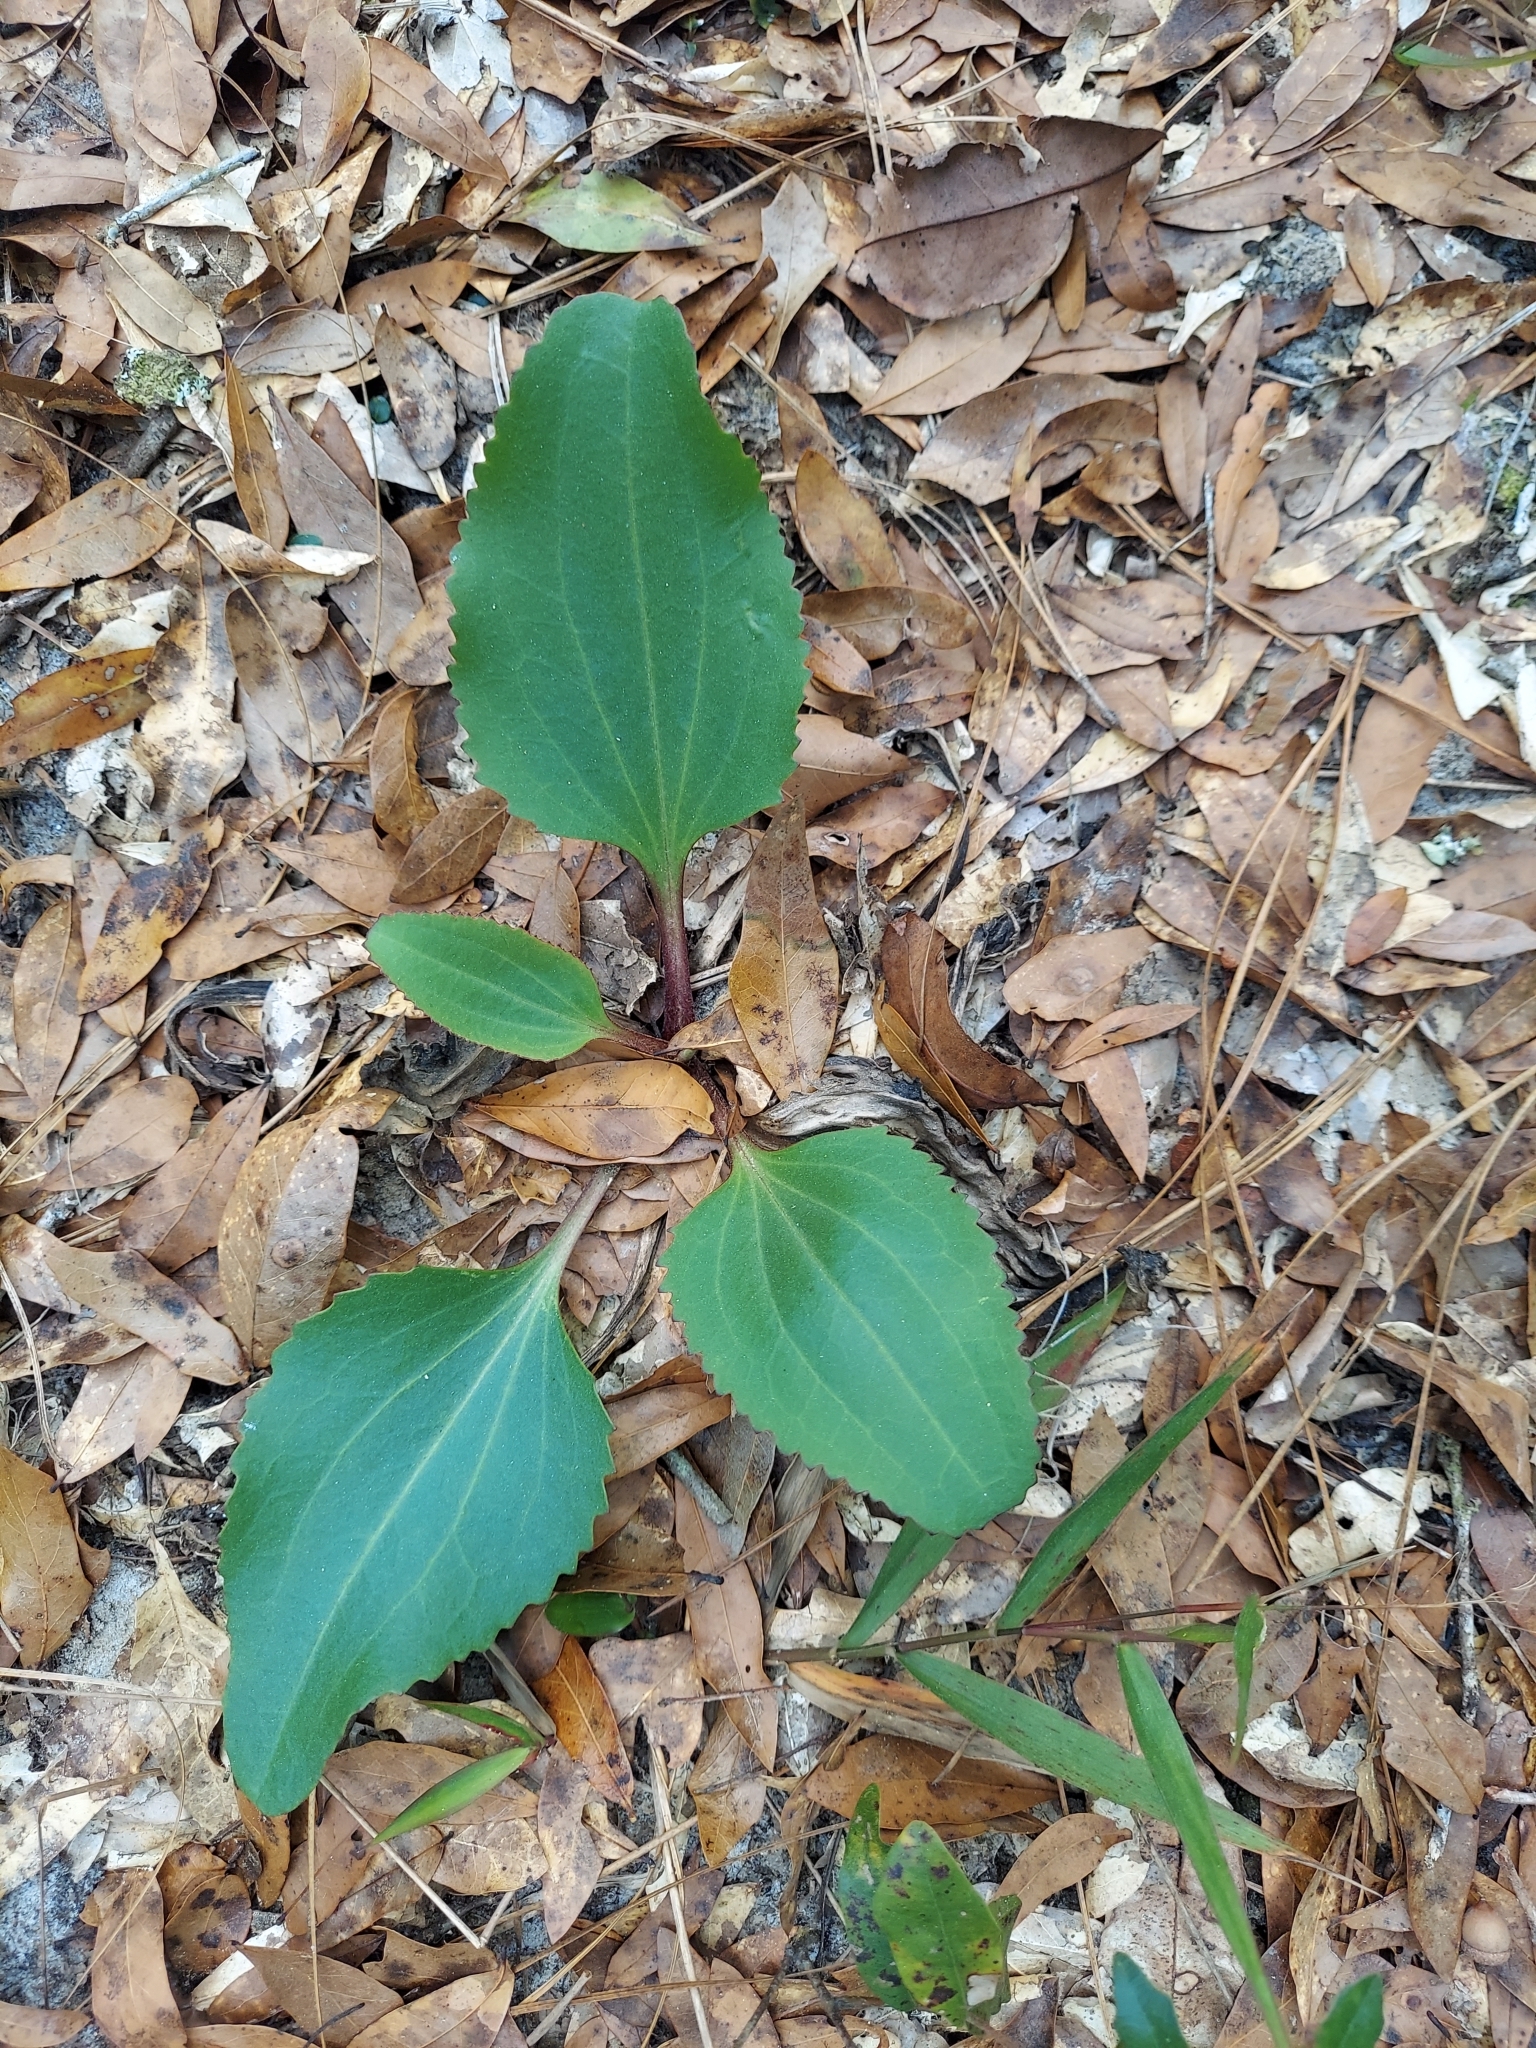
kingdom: Plantae
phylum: Tracheophyta
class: Magnoliopsida
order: Asterales
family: Asteraceae
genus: Arnoglossum
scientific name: Arnoglossum floridanum
